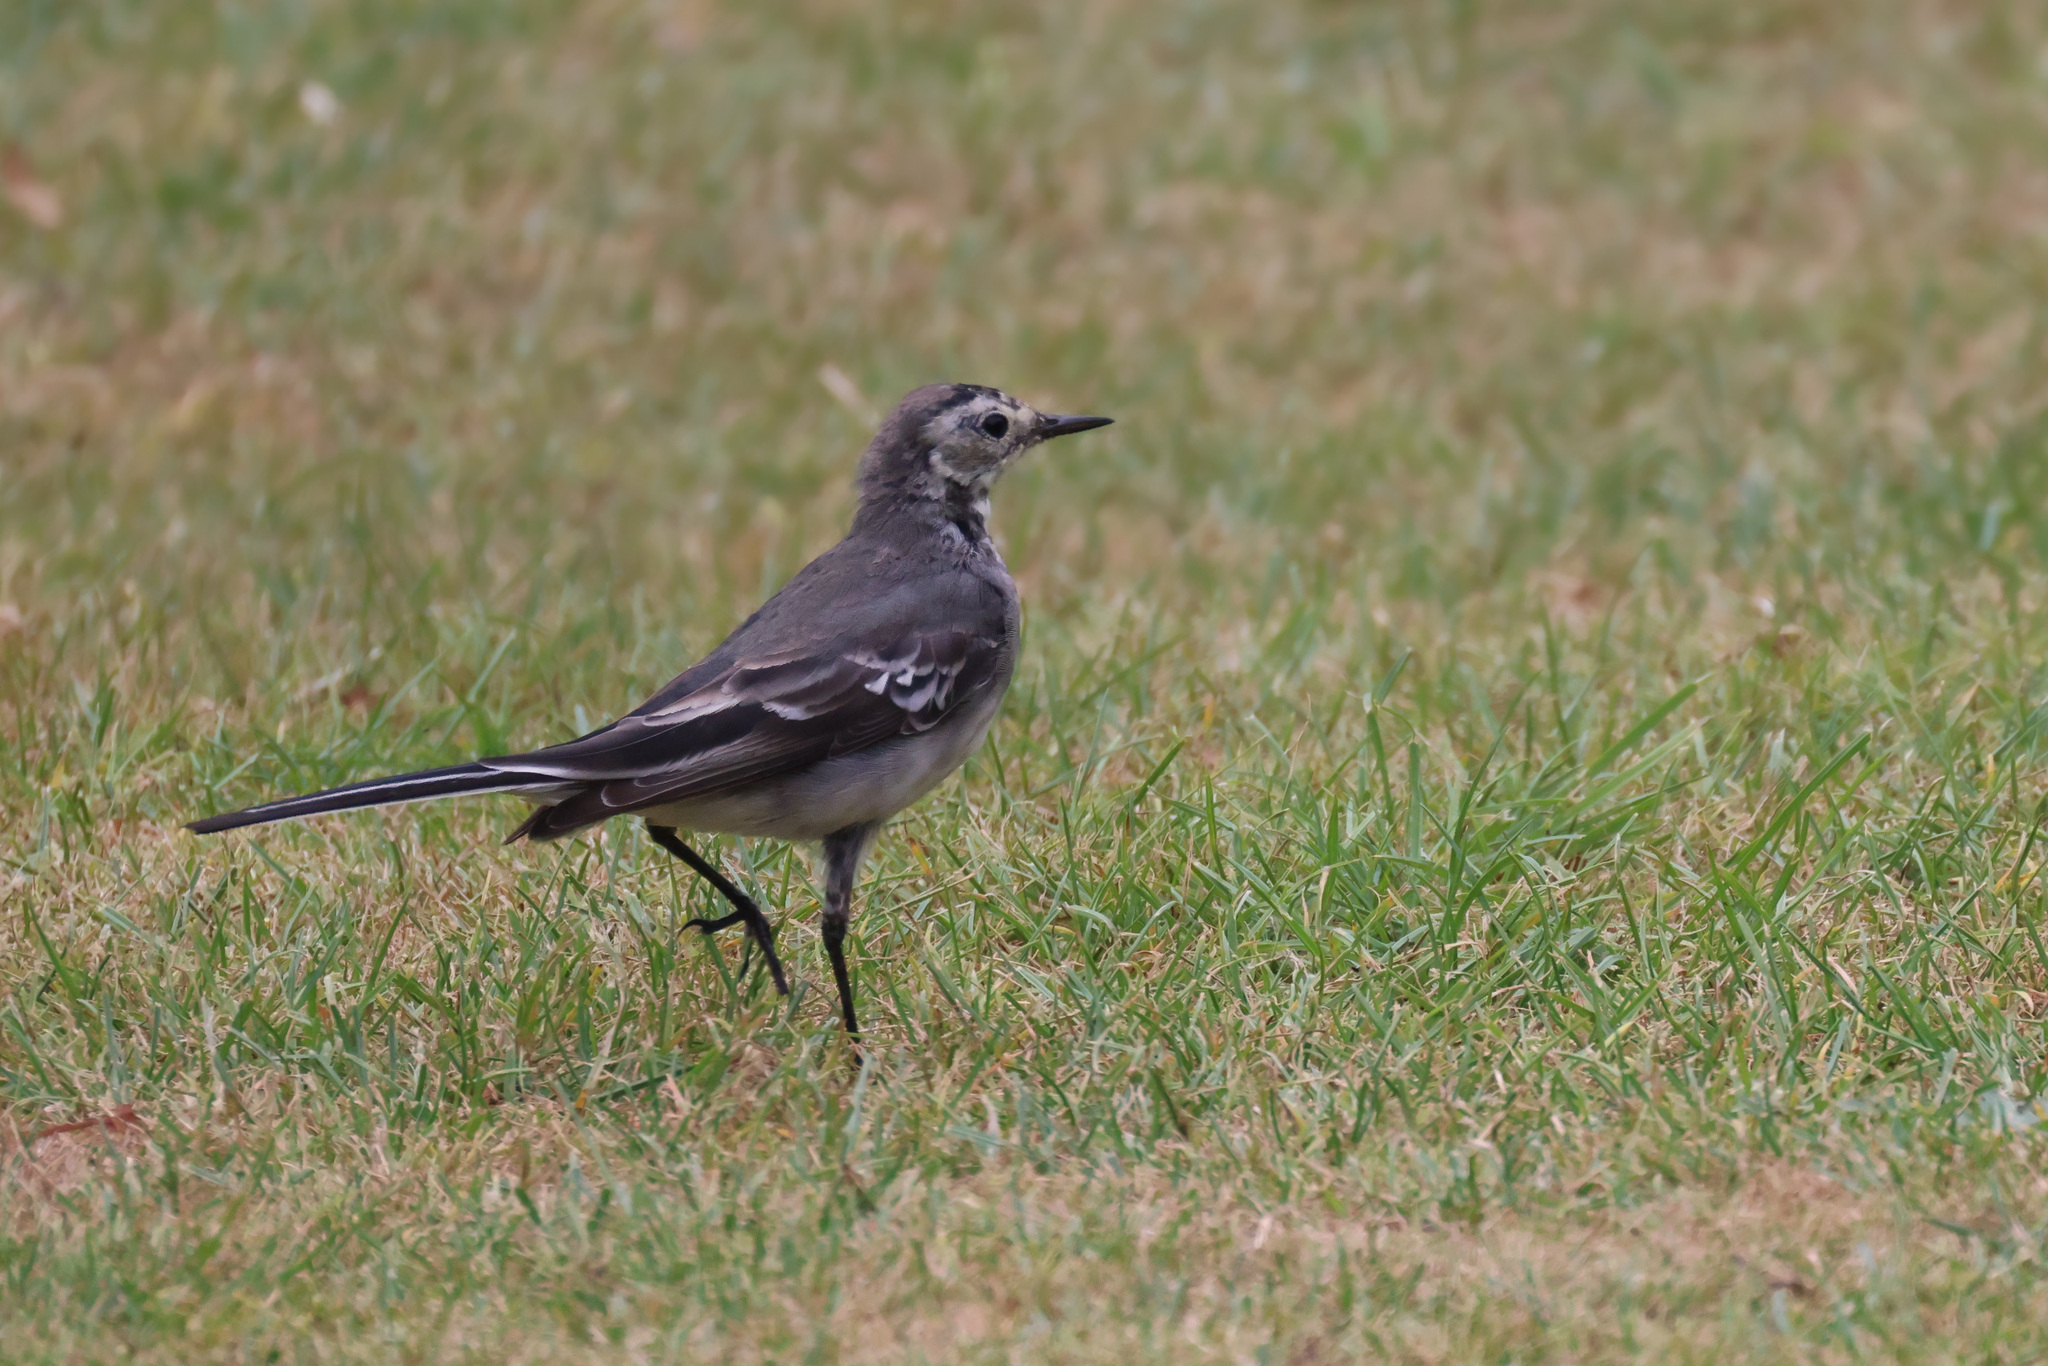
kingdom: Animalia
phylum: Chordata
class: Aves
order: Passeriformes
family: Motacillidae
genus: Motacilla
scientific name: Motacilla alba
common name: White wagtail
